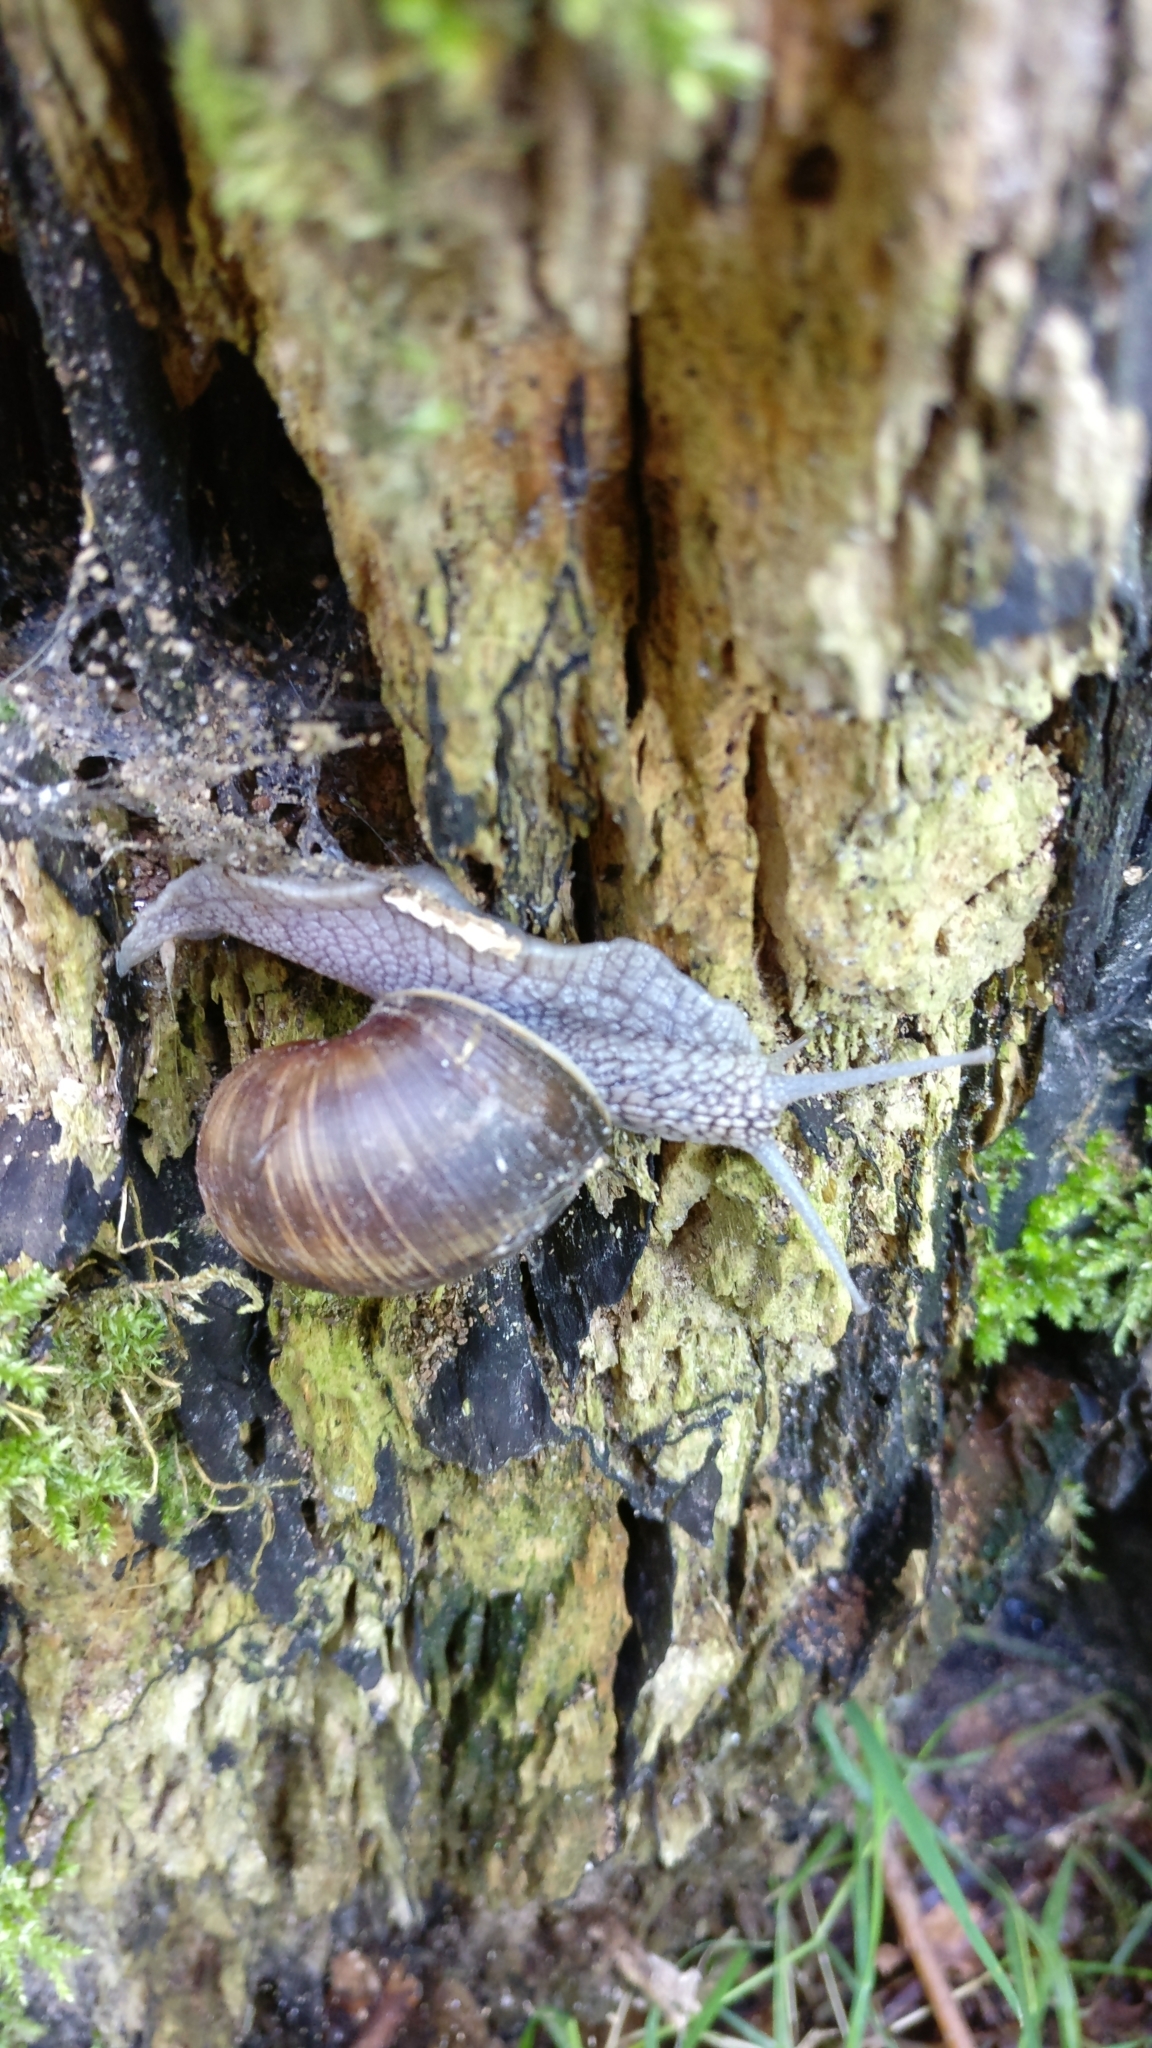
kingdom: Animalia
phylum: Mollusca
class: Gastropoda
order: Stylommatophora
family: Helicidae
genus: Cornu
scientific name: Cornu aspersum
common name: Brown garden snail
